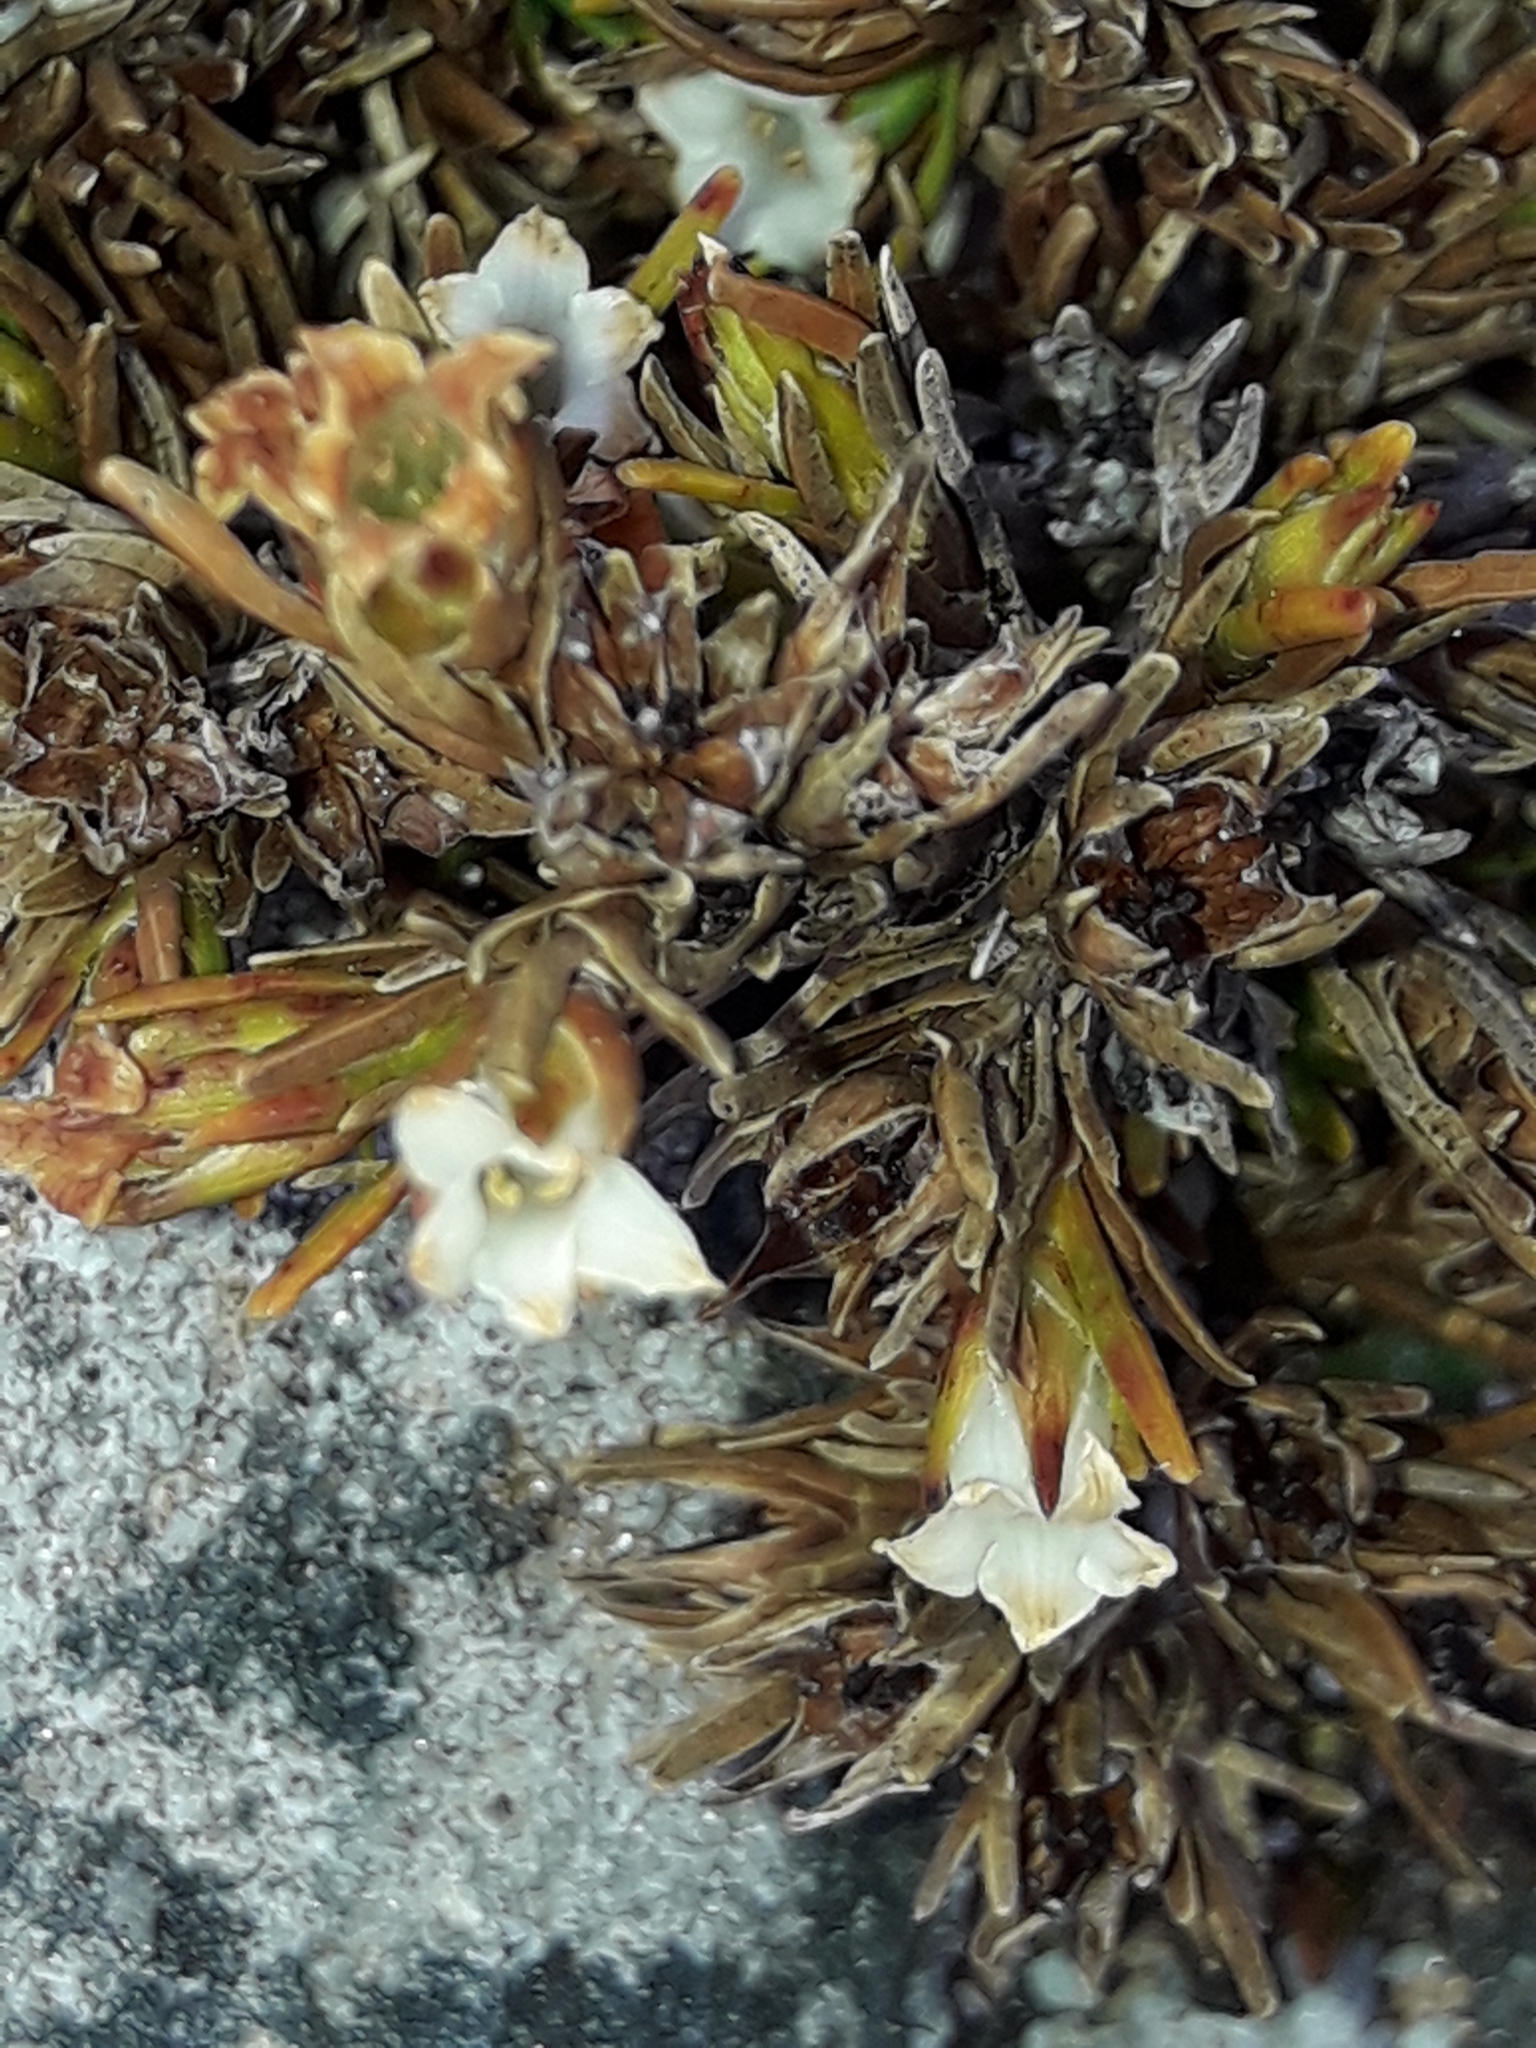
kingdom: Plantae
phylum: Tracheophyta
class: Magnoliopsida
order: Ericales
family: Ericaceae
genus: Dracophyllum
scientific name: Dracophyllum densum
